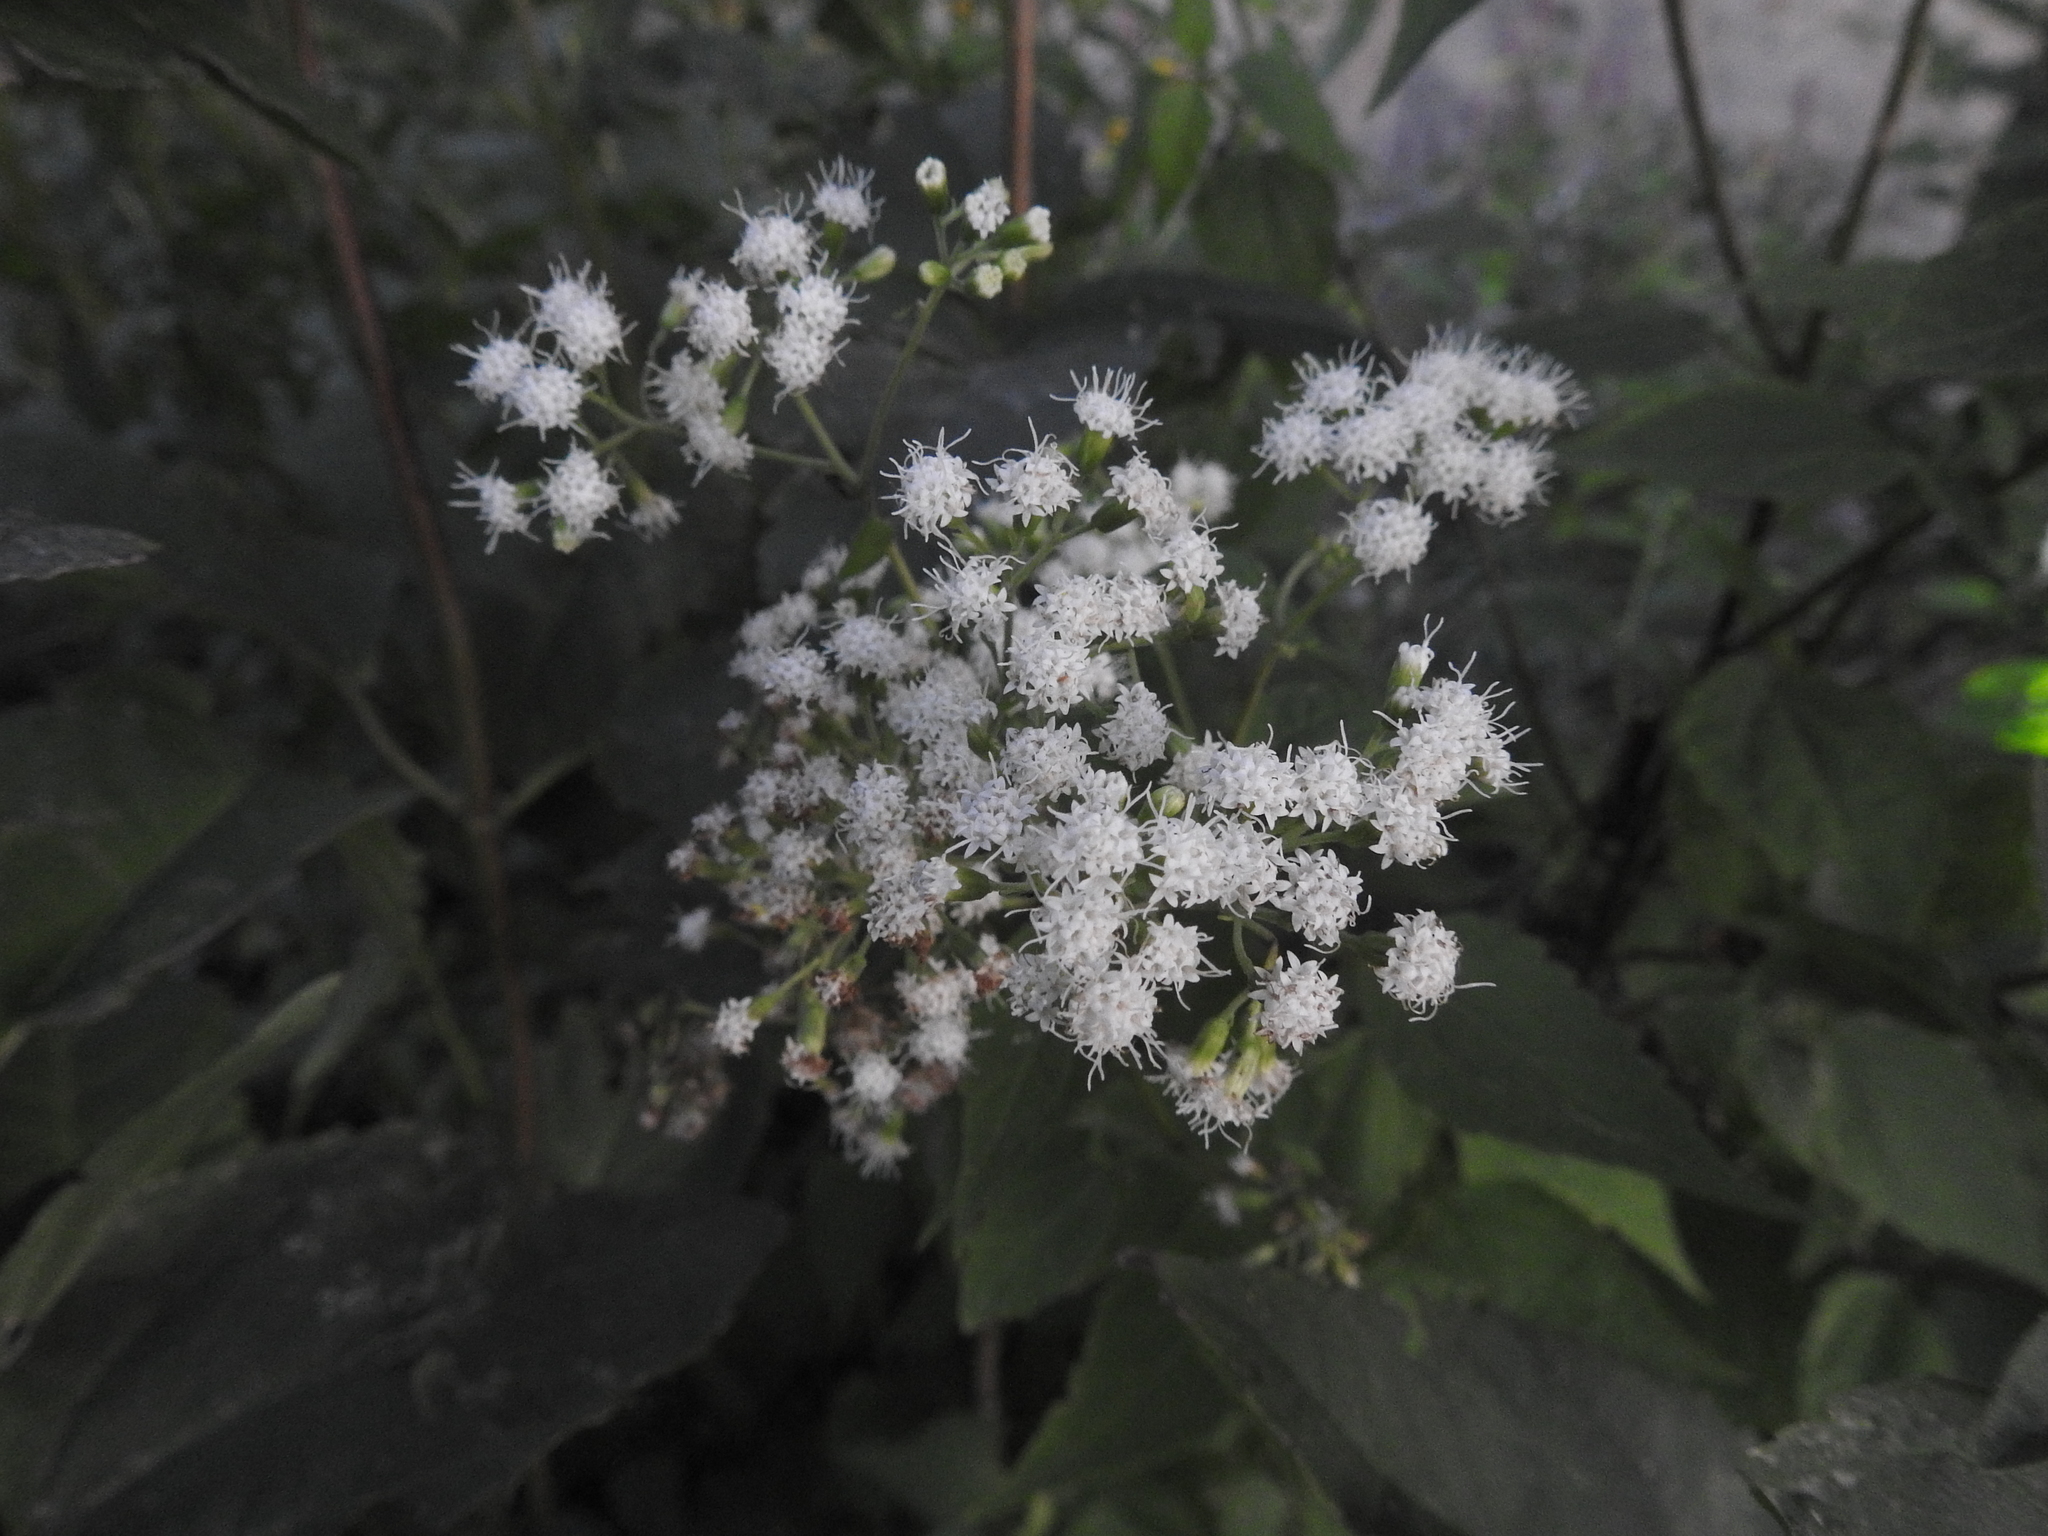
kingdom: Plantae
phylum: Tracheophyta
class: Magnoliopsida
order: Asterales
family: Asteraceae
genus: Ageratina
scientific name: Ageratina altissima
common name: White snakeroot
